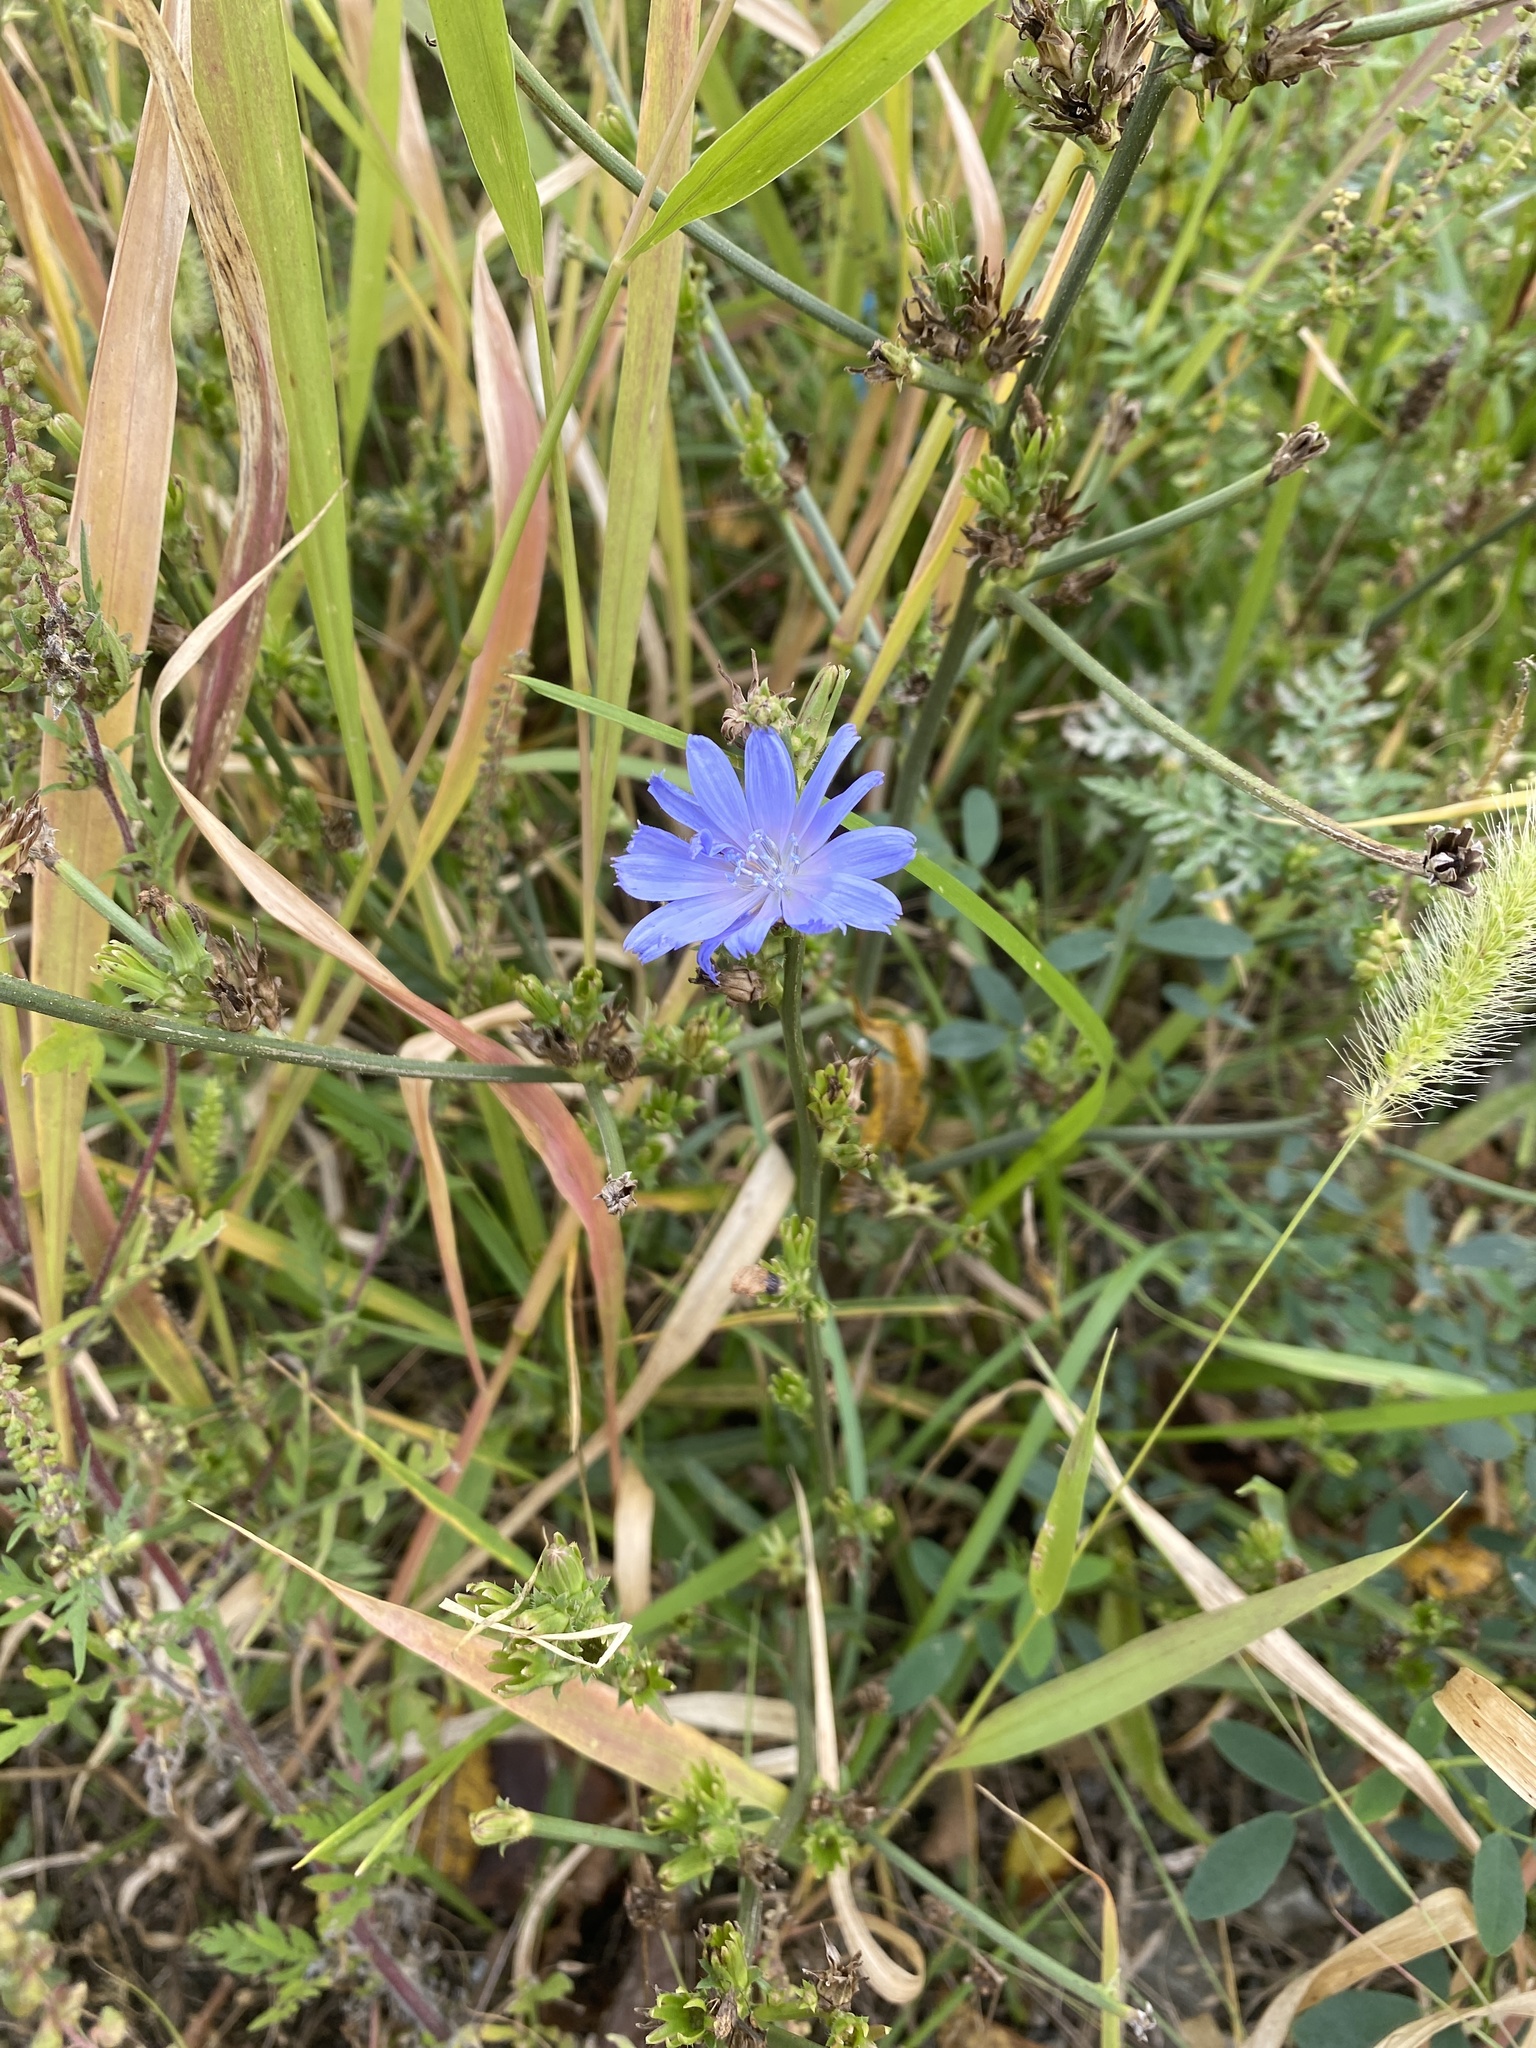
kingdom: Plantae
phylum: Tracheophyta
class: Magnoliopsida
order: Asterales
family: Asteraceae
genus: Cichorium
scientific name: Cichorium intybus
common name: Chicory
